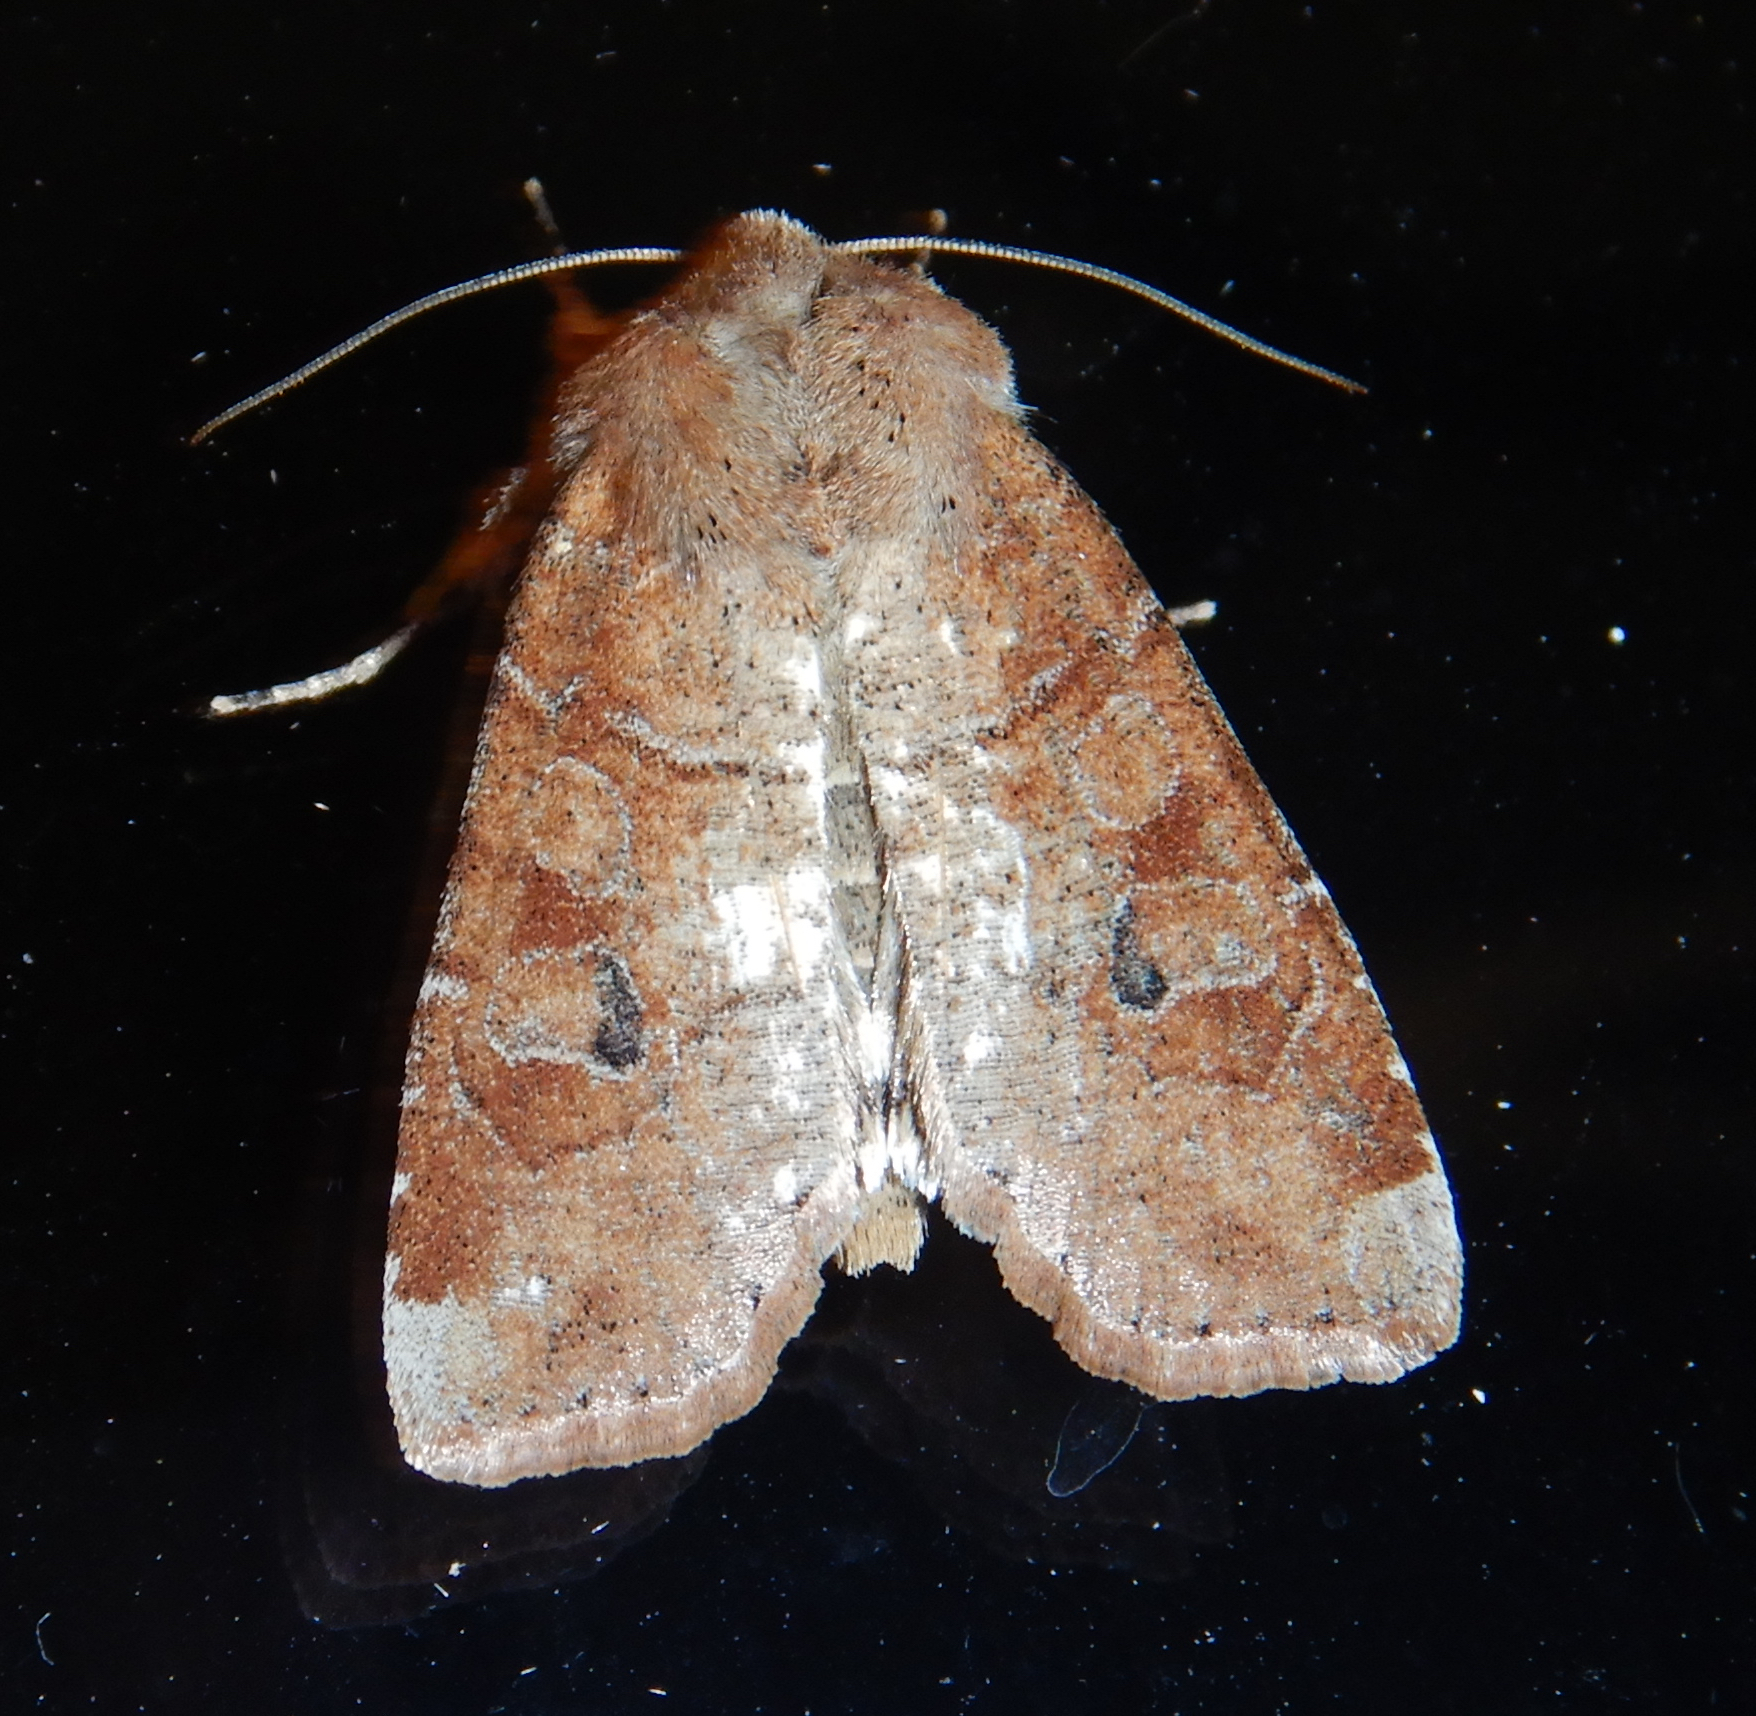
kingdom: Animalia
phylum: Arthropoda
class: Insecta
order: Lepidoptera
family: Noctuidae
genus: Crocigrapha
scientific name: Crocigrapha normani
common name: Norman's quaker
